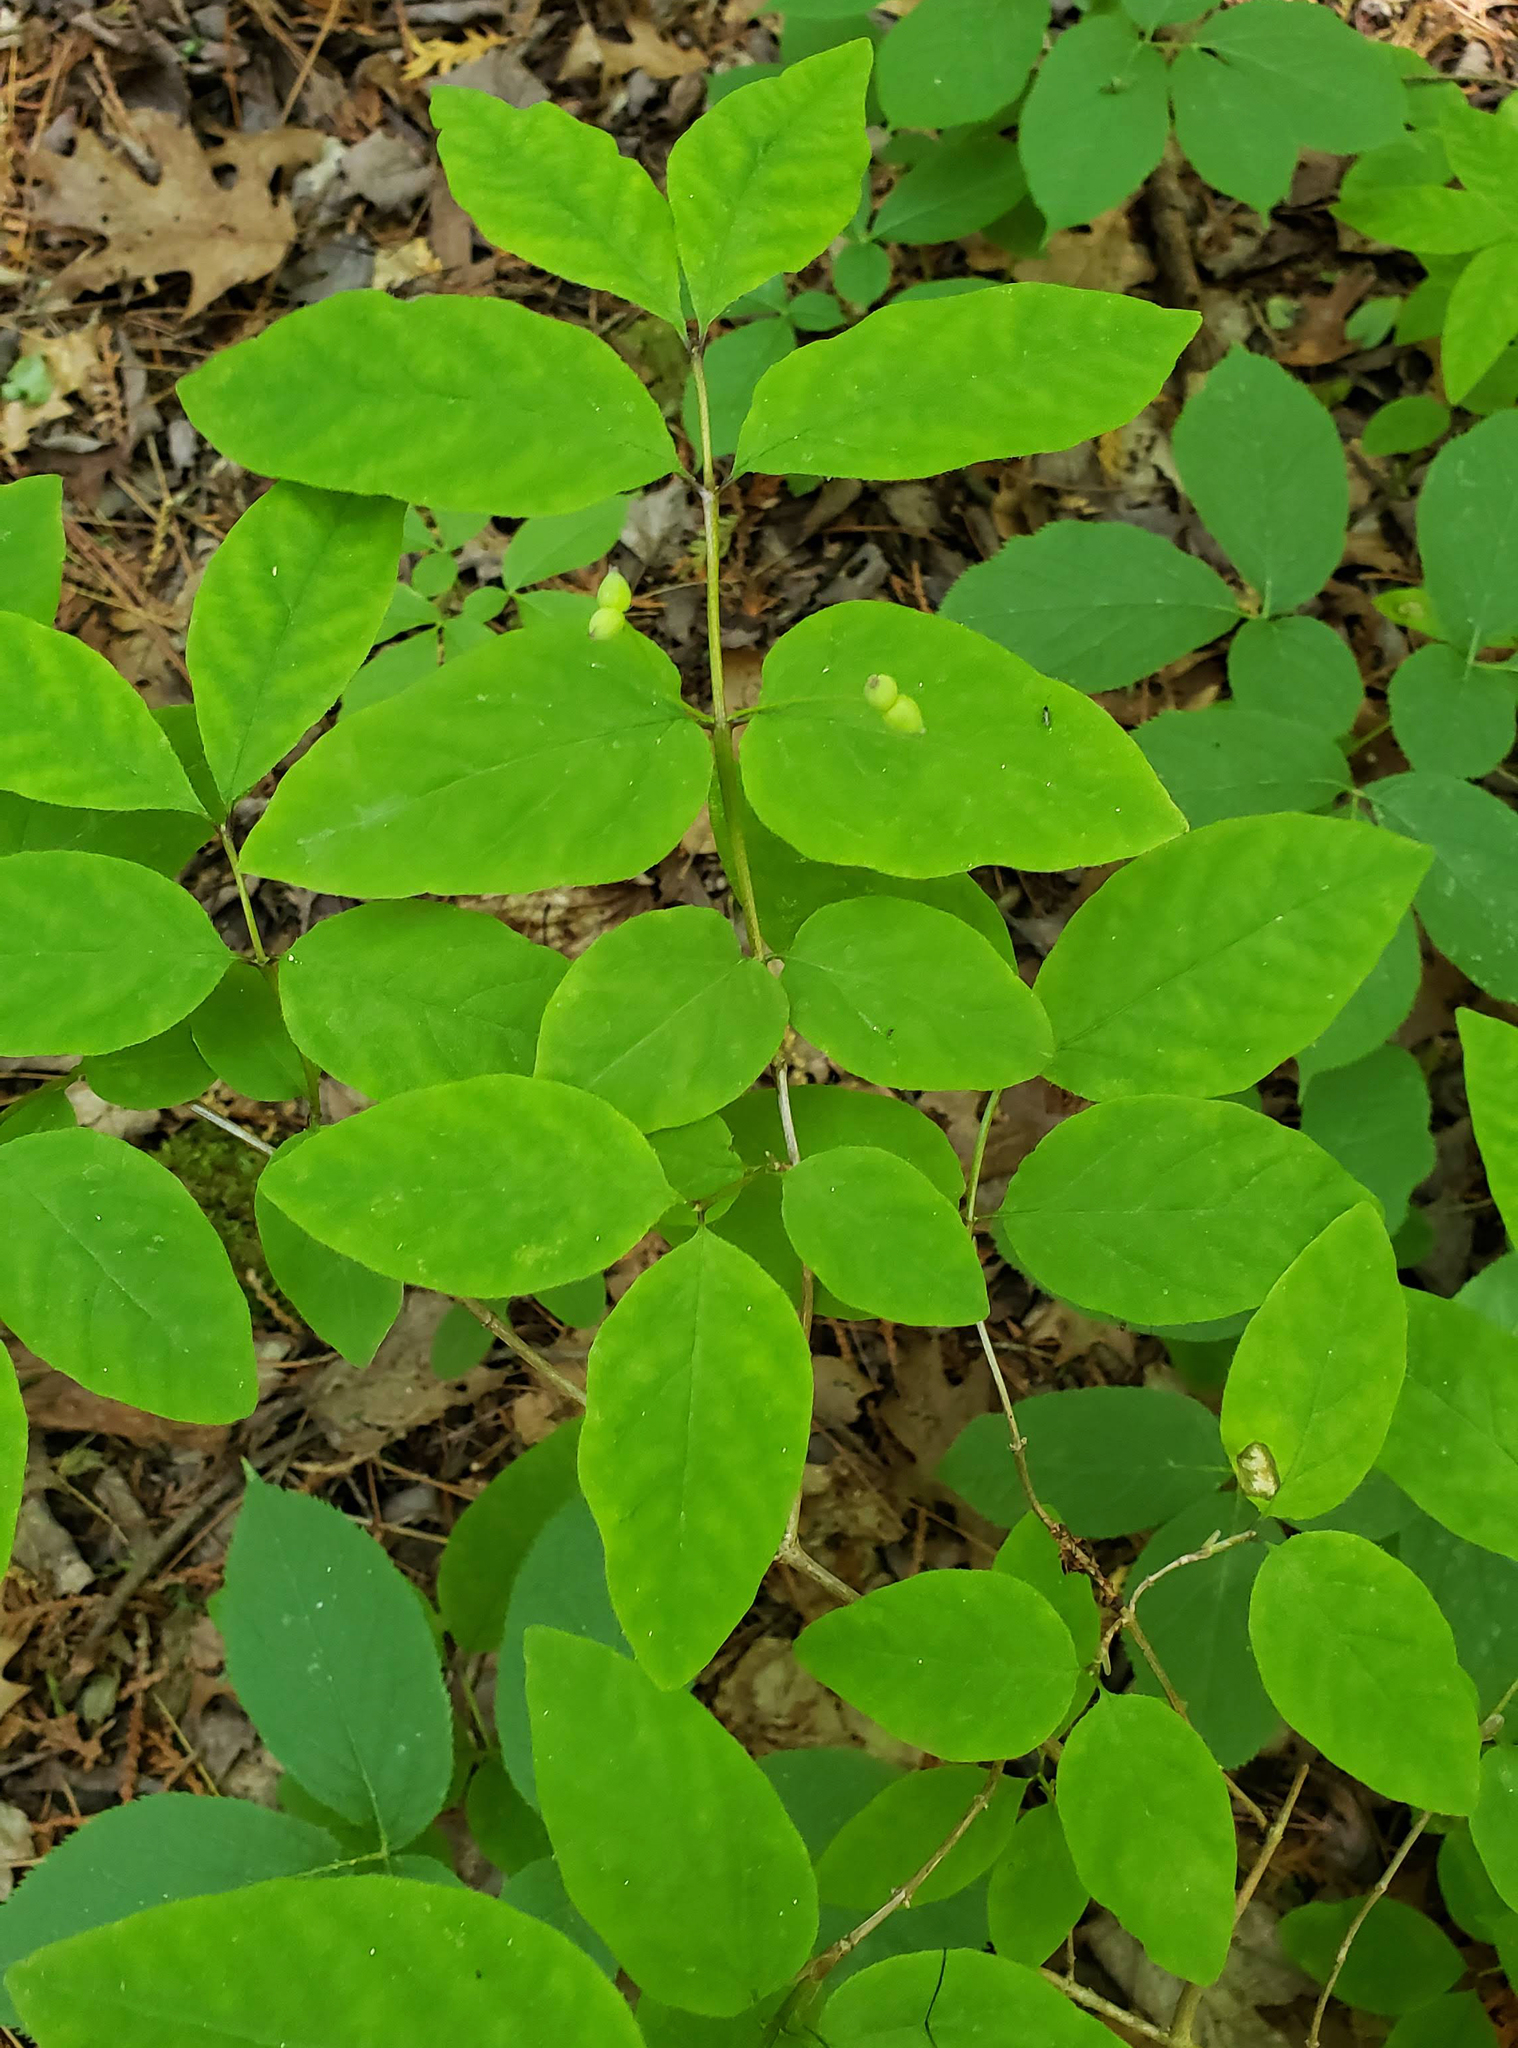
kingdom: Plantae
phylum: Tracheophyta
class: Magnoliopsida
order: Dipsacales
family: Caprifoliaceae
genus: Lonicera
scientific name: Lonicera canadensis
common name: American fly-honeysuckle
